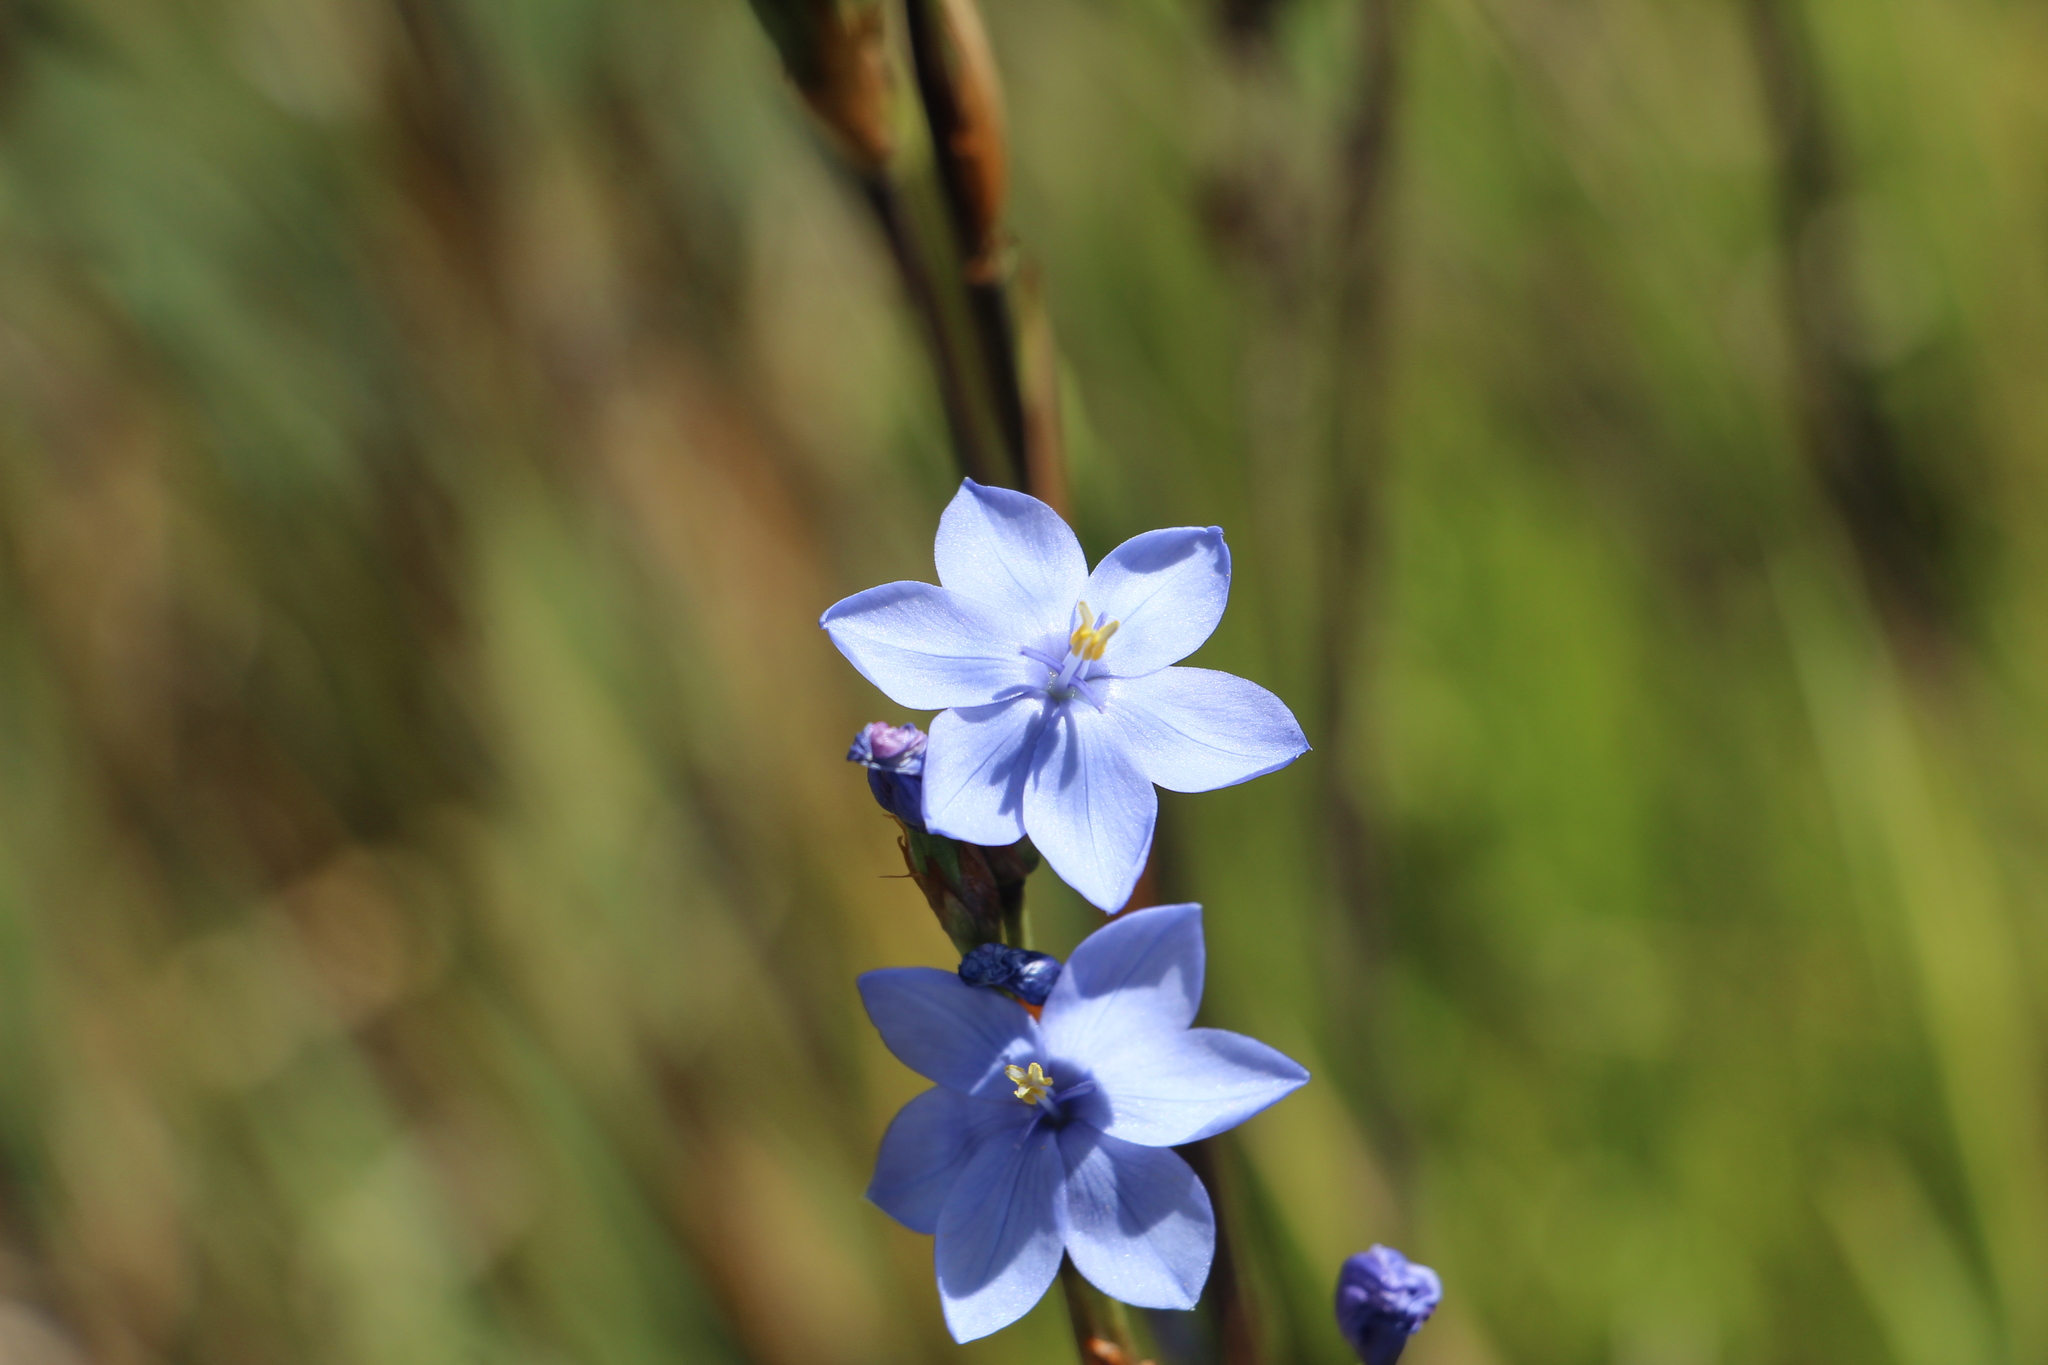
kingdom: Plantae
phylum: Tracheophyta
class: Liliopsida
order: Asparagales
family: Iridaceae
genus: Orthrosanthus
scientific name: Orthrosanthus chimboracensis
